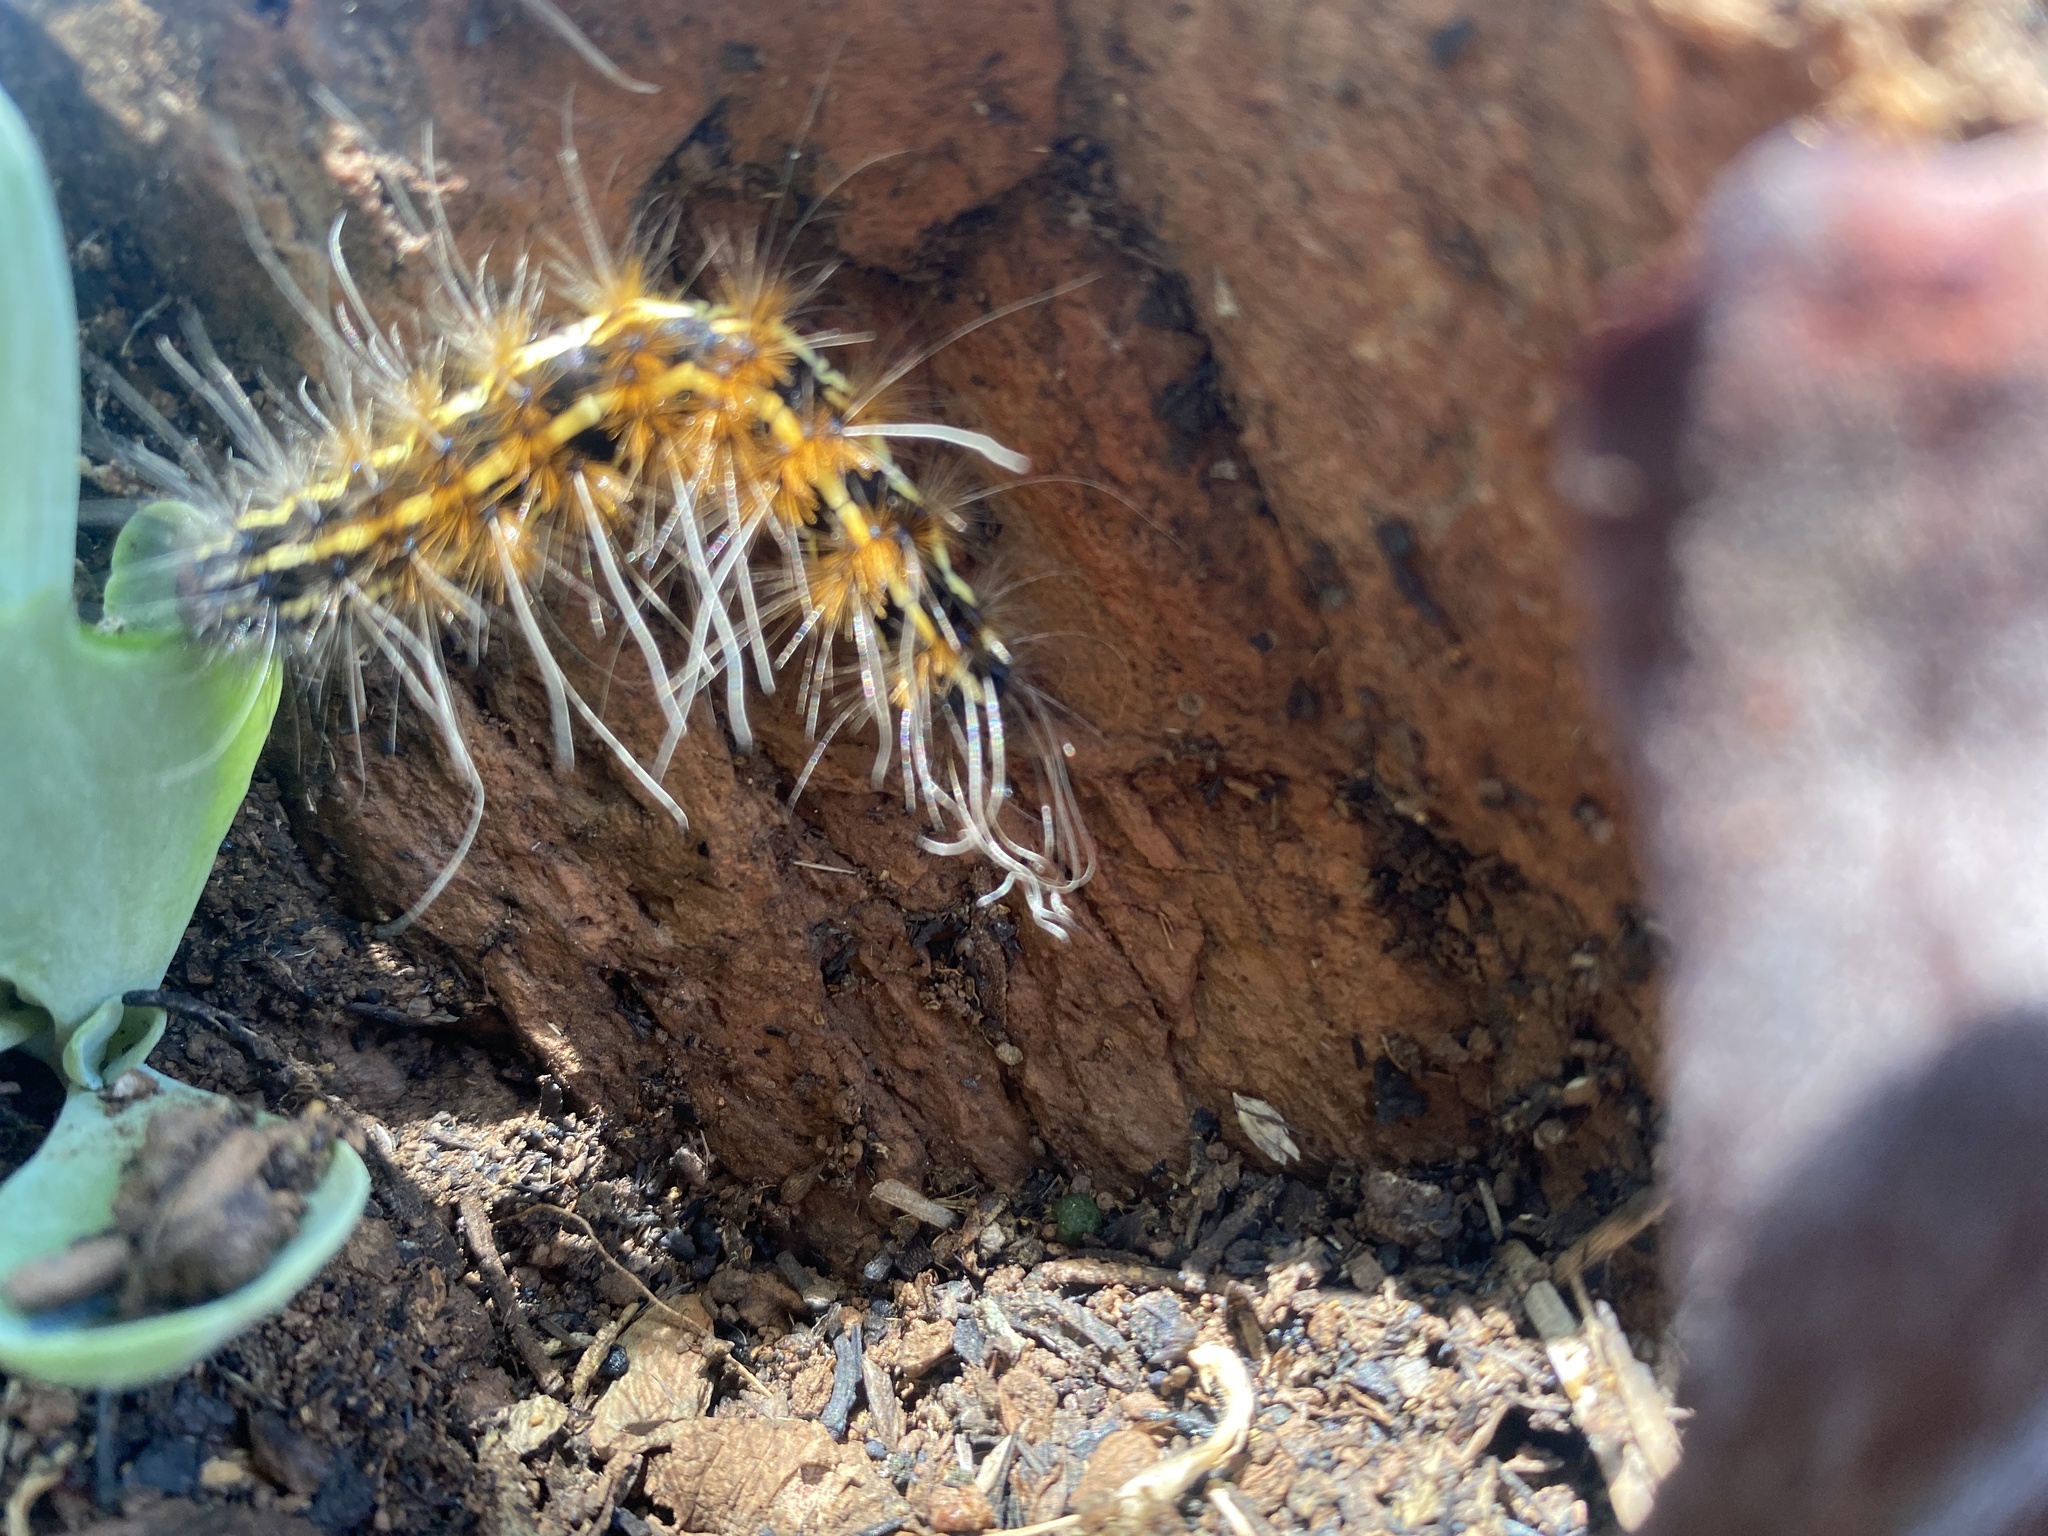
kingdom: Animalia
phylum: Arthropoda
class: Insecta
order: Lepidoptera
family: Erebidae
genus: Leucaloa
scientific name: Leucaloa eugraphica
